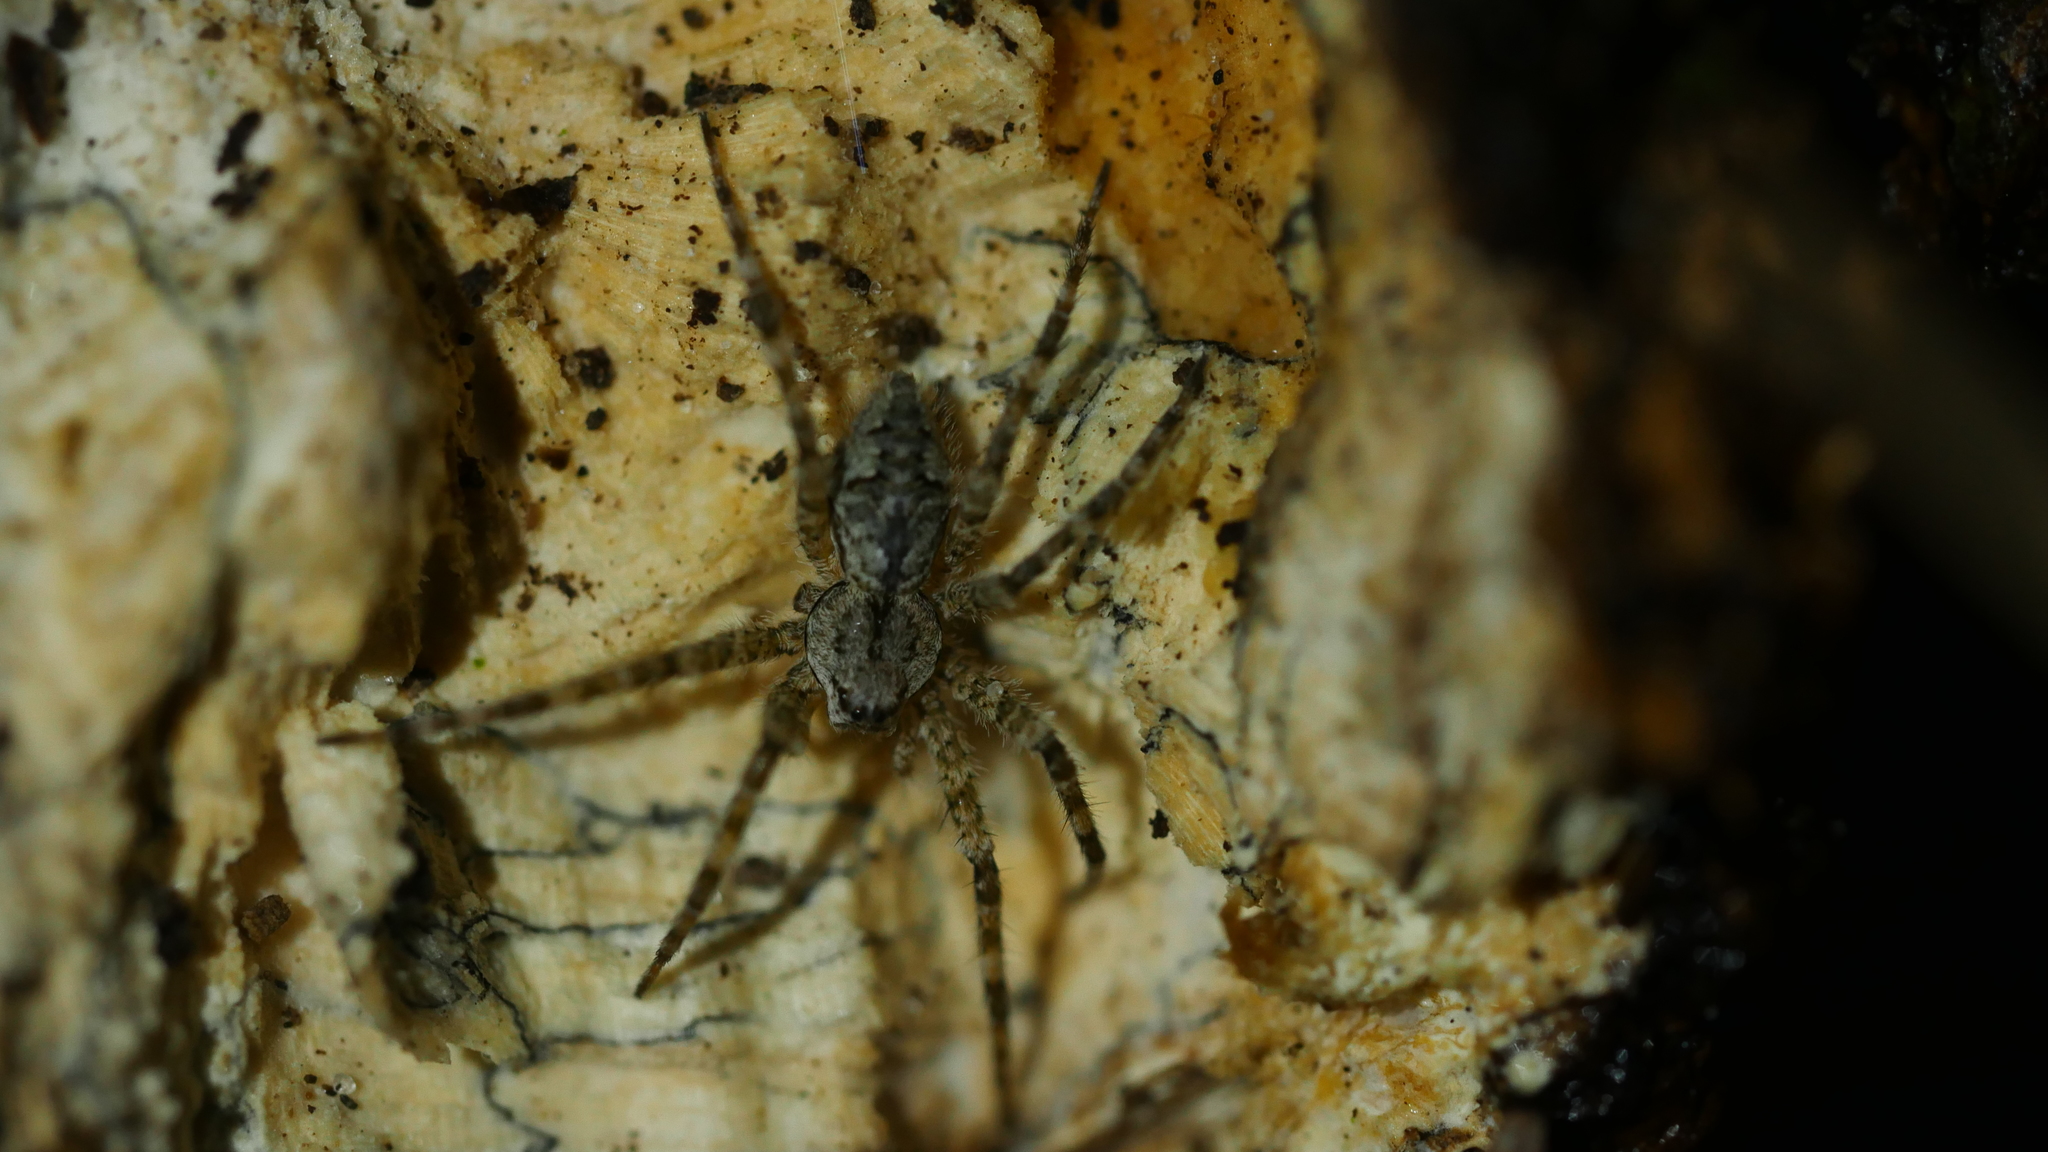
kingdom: Animalia
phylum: Arthropoda
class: Arachnida
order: Araneae
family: Pisauridae
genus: Dolomedes
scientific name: Dolomedes albineus
